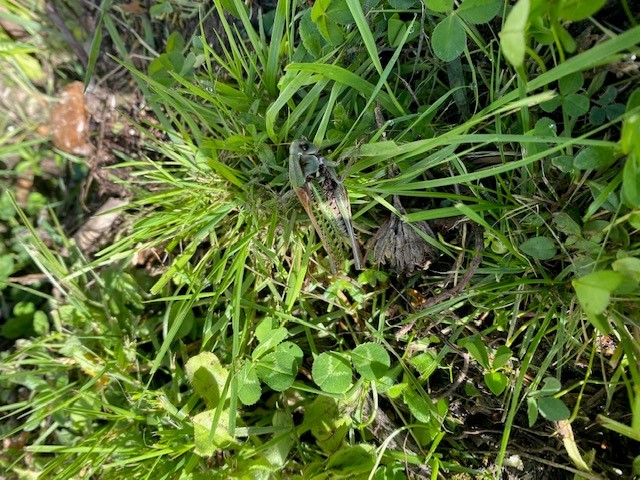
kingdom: Animalia
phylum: Arthropoda
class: Insecta
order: Orthoptera
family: Tettigoniidae
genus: Decticus
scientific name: Decticus verrucivorus
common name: Wart-biter
